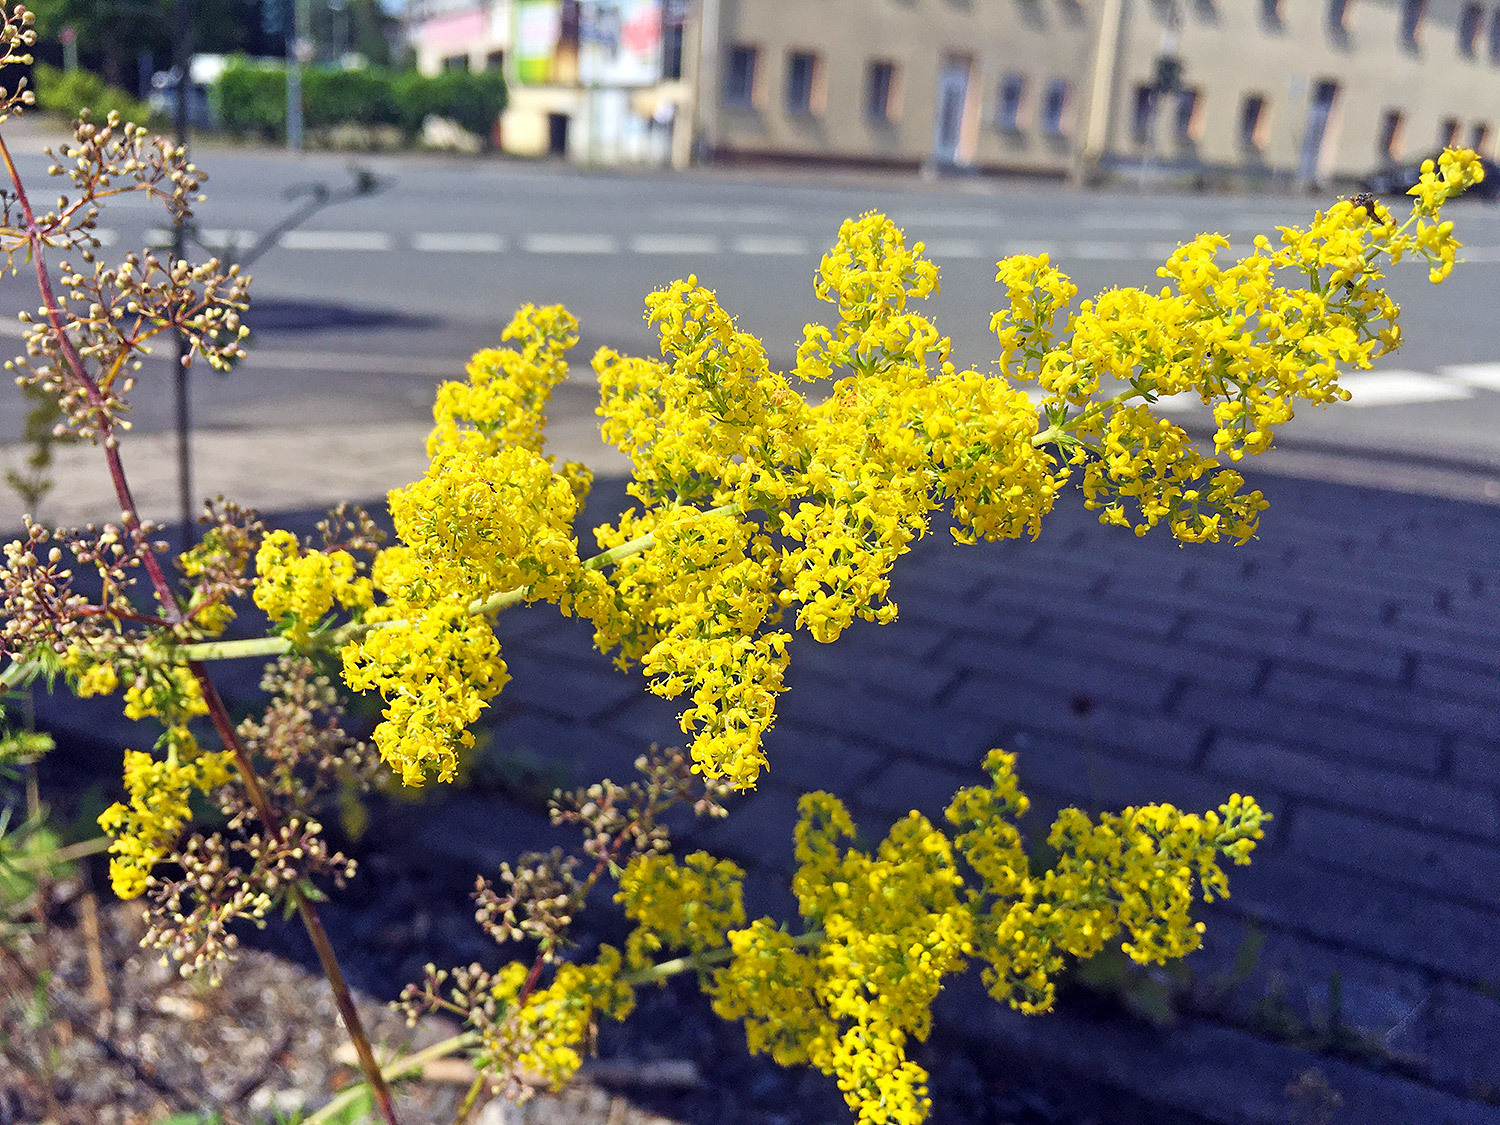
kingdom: Plantae
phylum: Tracheophyta
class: Magnoliopsida
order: Gentianales
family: Rubiaceae
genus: Galium
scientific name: Galium verum
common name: Lady's bedstraw
